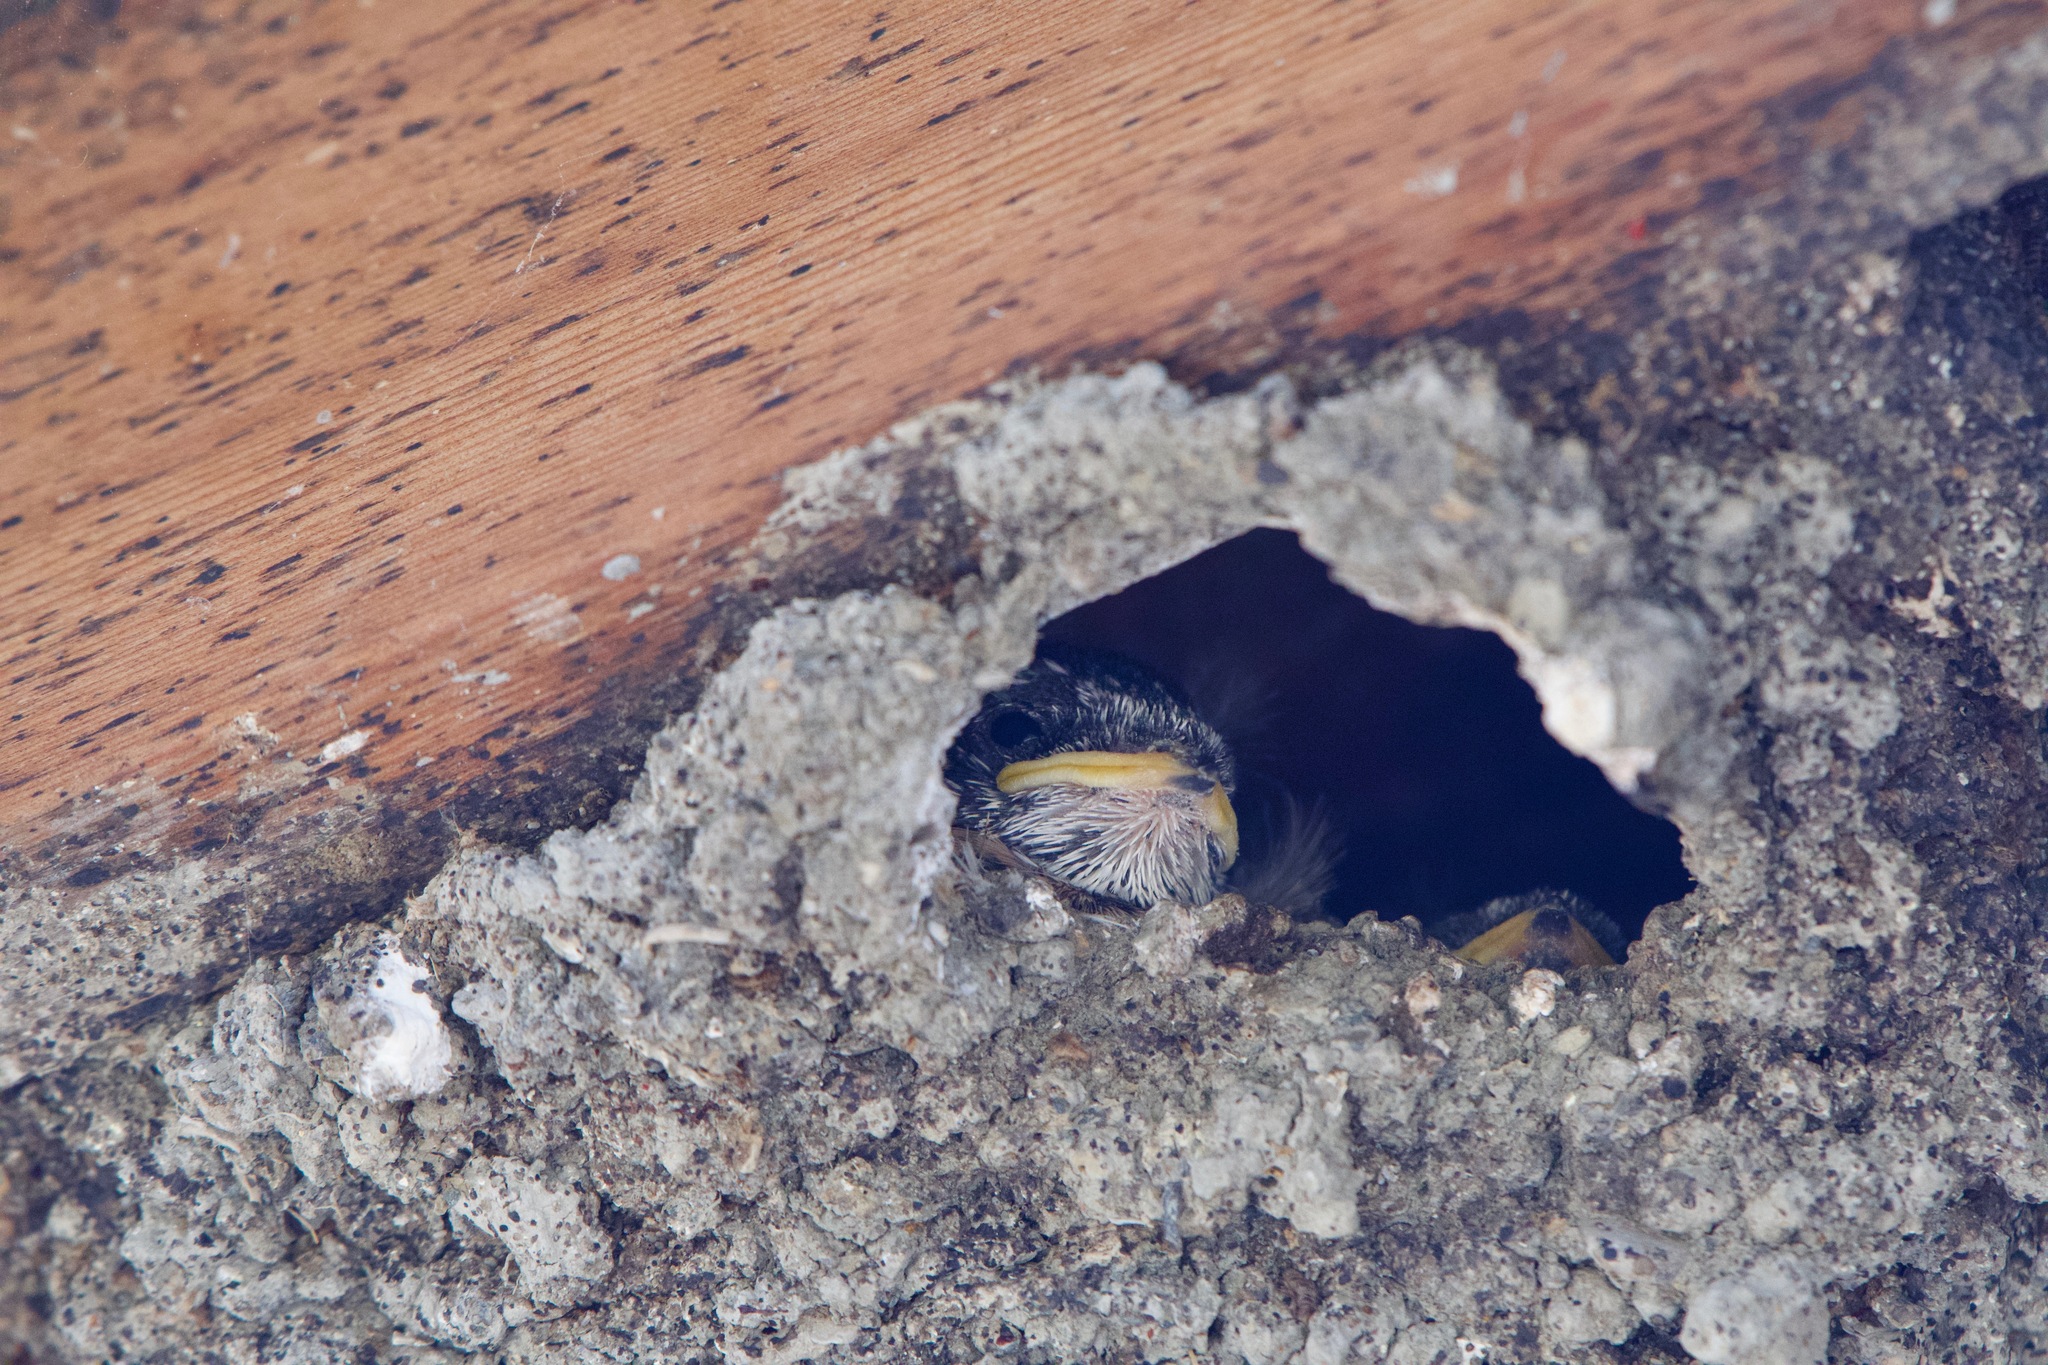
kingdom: Animalia
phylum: Chordata
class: Aves
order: Passeriformes
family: Hirundinidae
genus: Petrochelidon
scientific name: Petrochelidon pyrrhonota
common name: American cliff swallow
